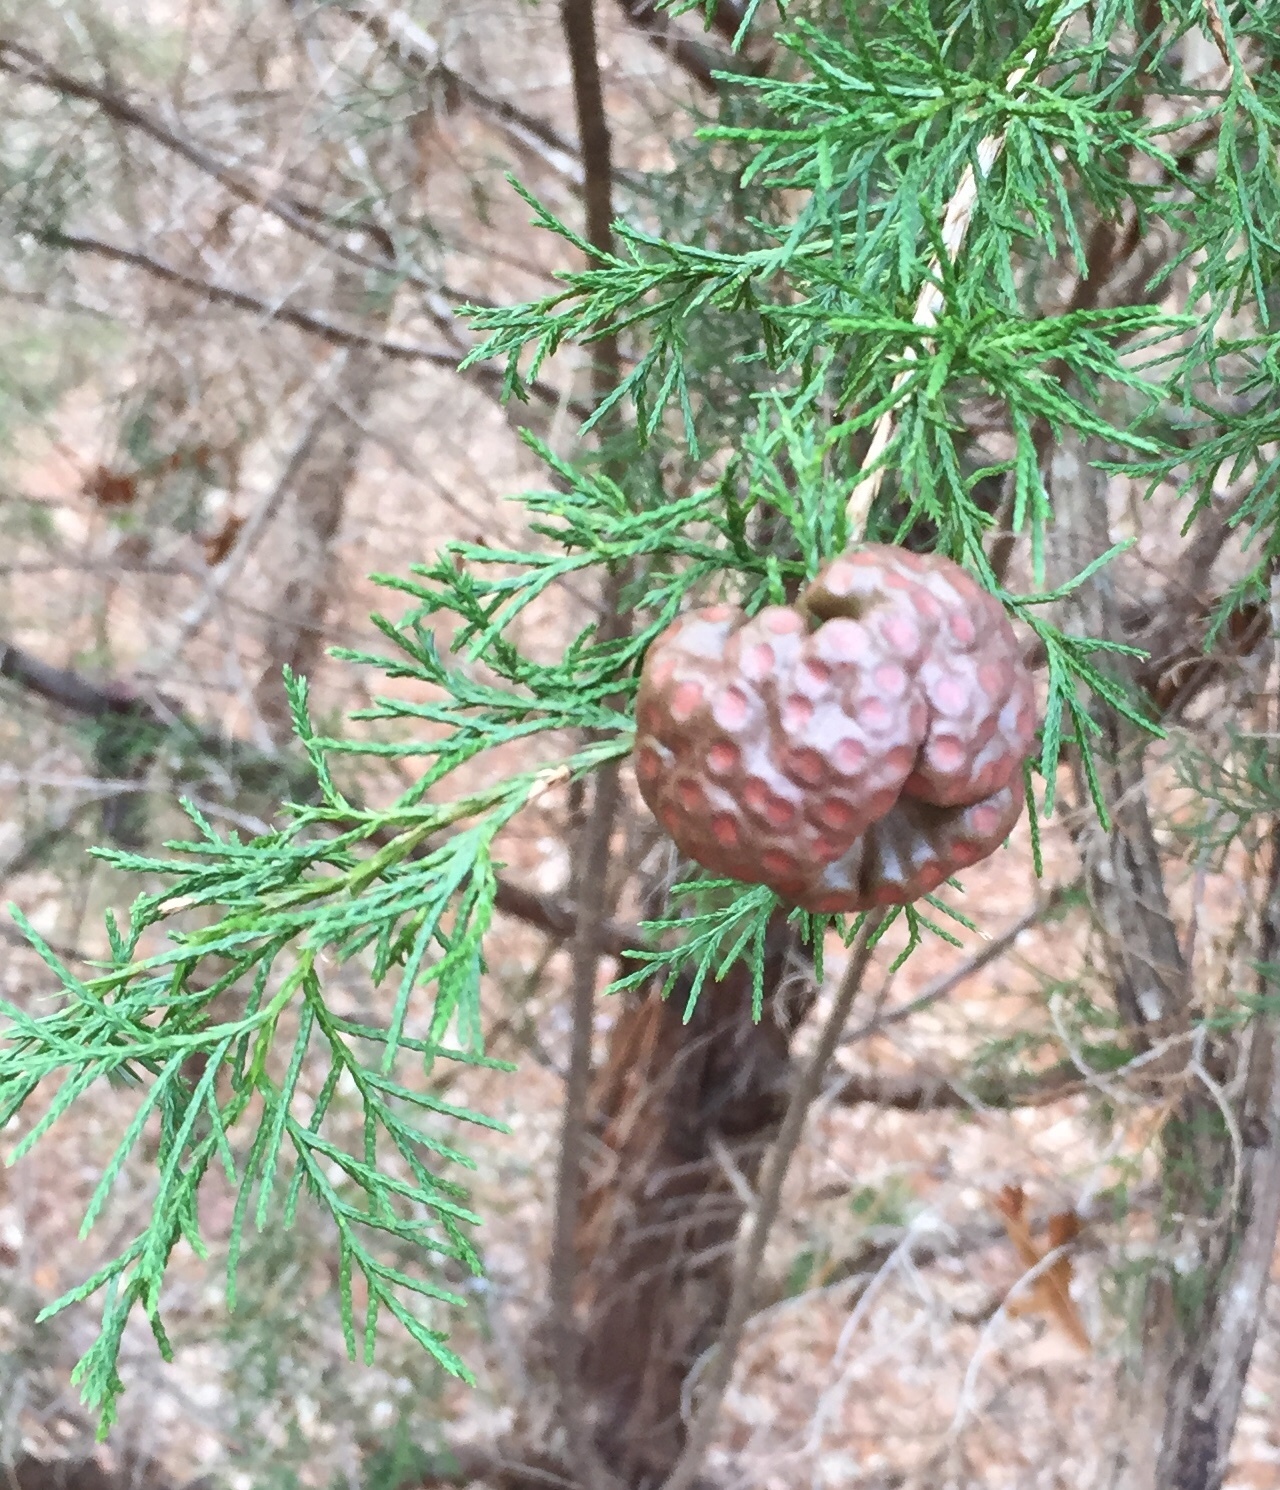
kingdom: Fungi
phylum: Basidiomycota
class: Pucciniomycetes
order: Pucciniales
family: Gymnosporangiaceae
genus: Gymnosporangium
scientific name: Gymnosporangium juniperi-virginianae
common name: Juniper-apple rust
